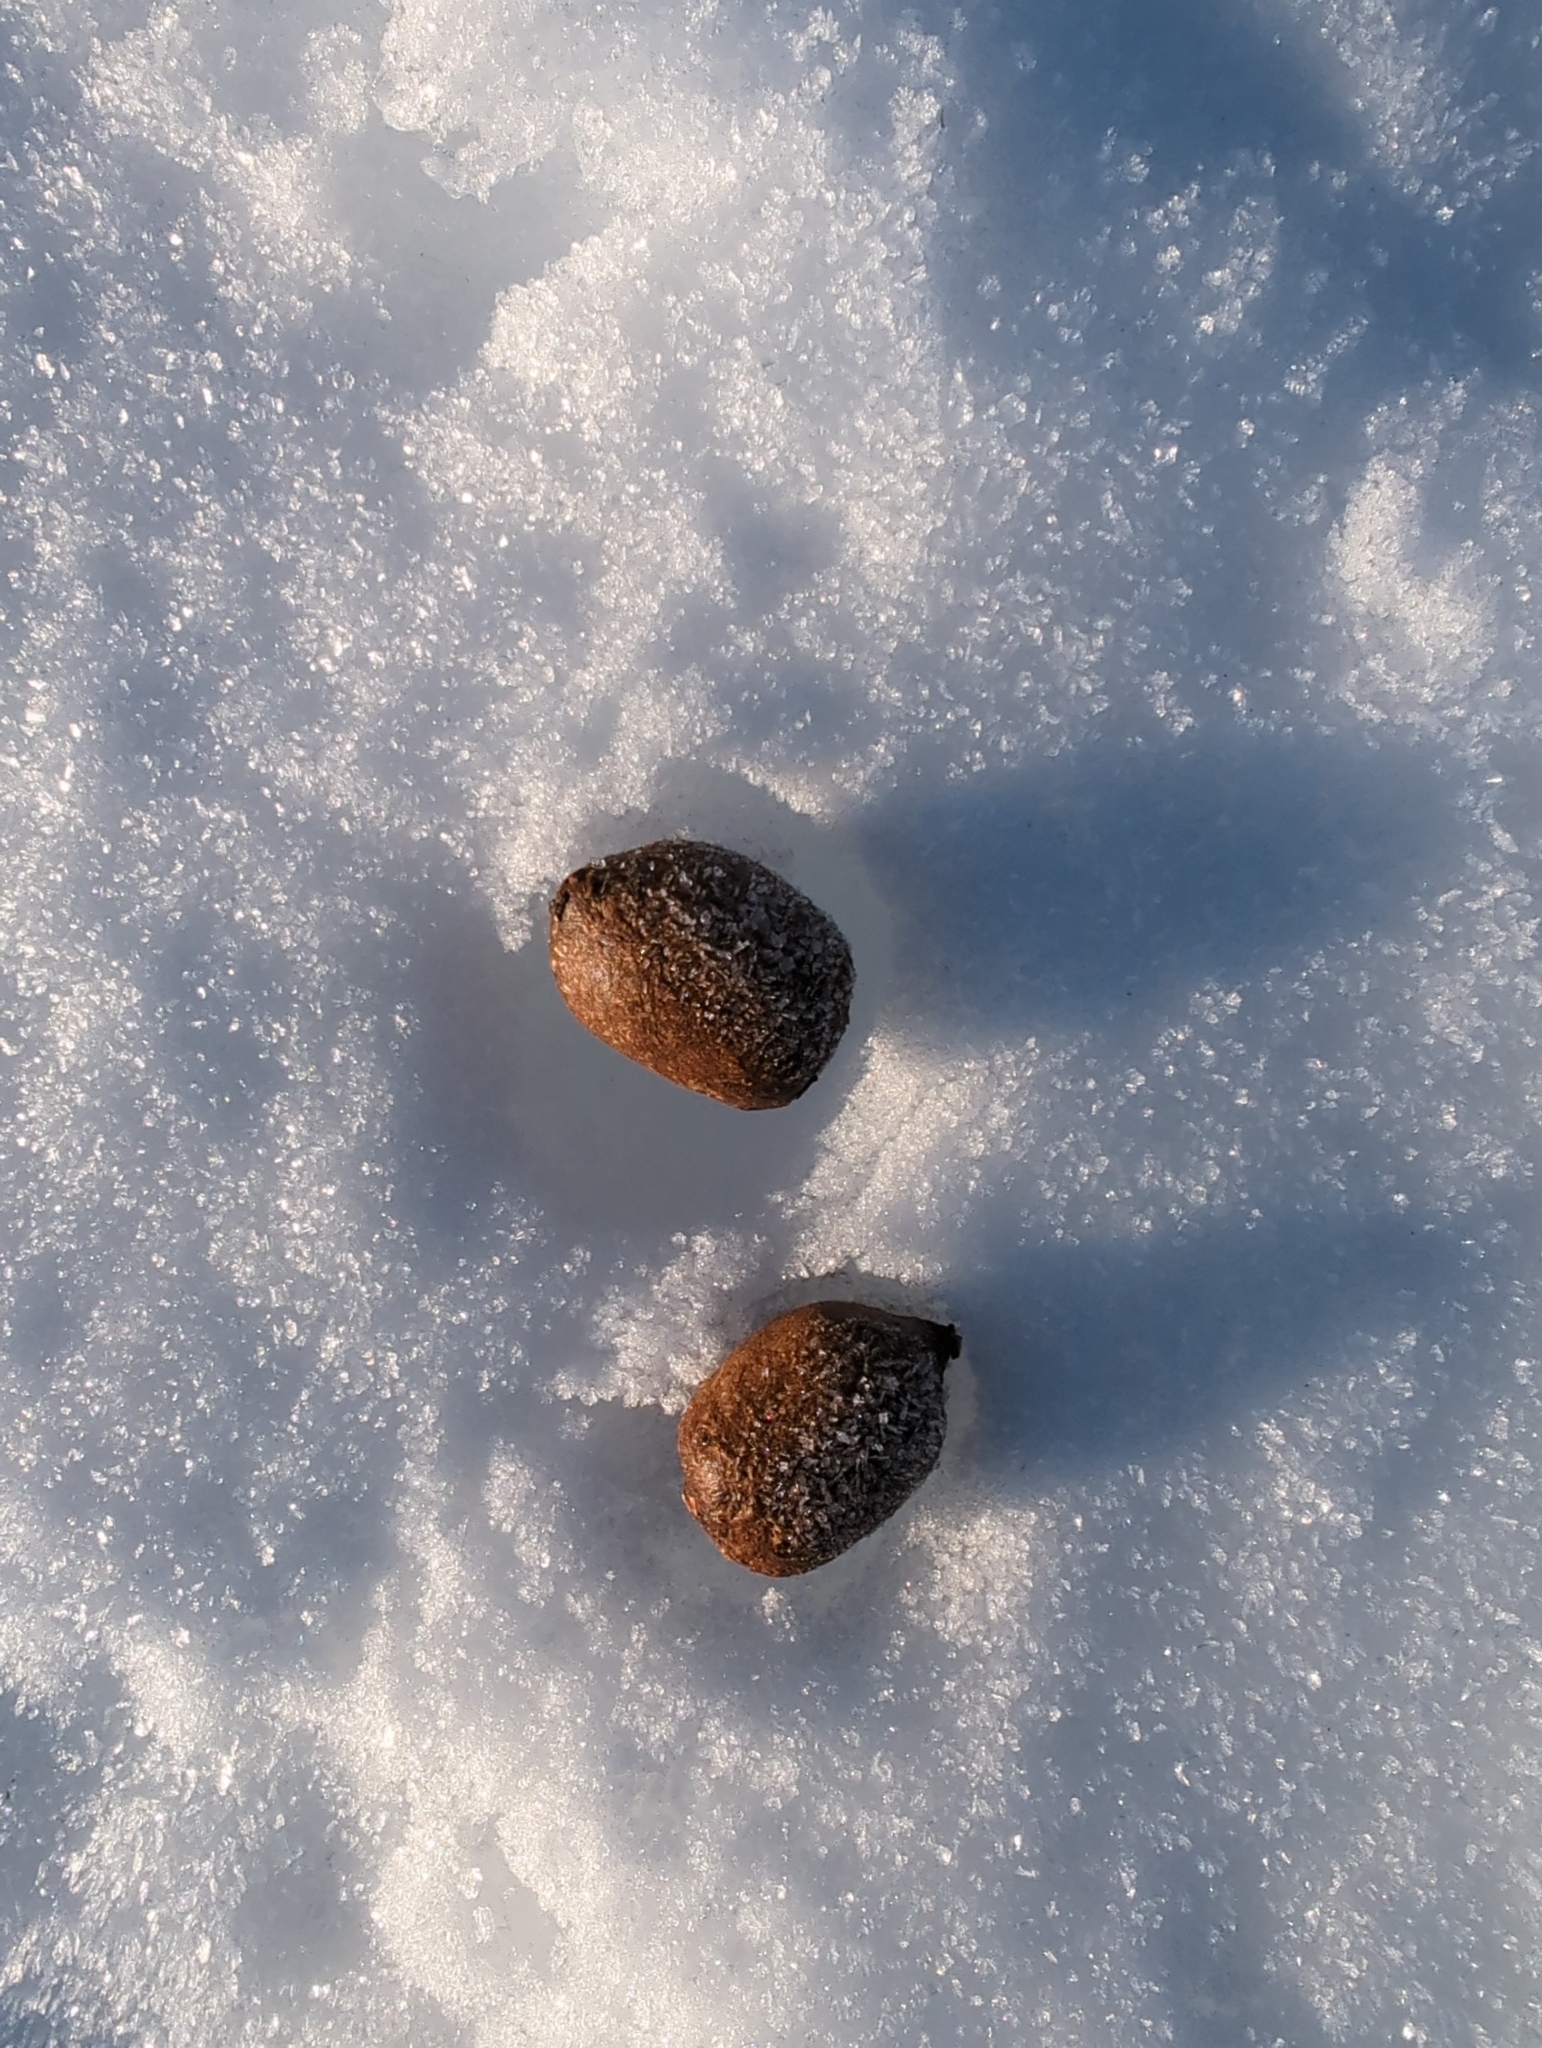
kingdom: Animalia
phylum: Chordata
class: Mammalia
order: Artiodactyla
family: Cervidae
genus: Alces
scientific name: Alces alces
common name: Moose
